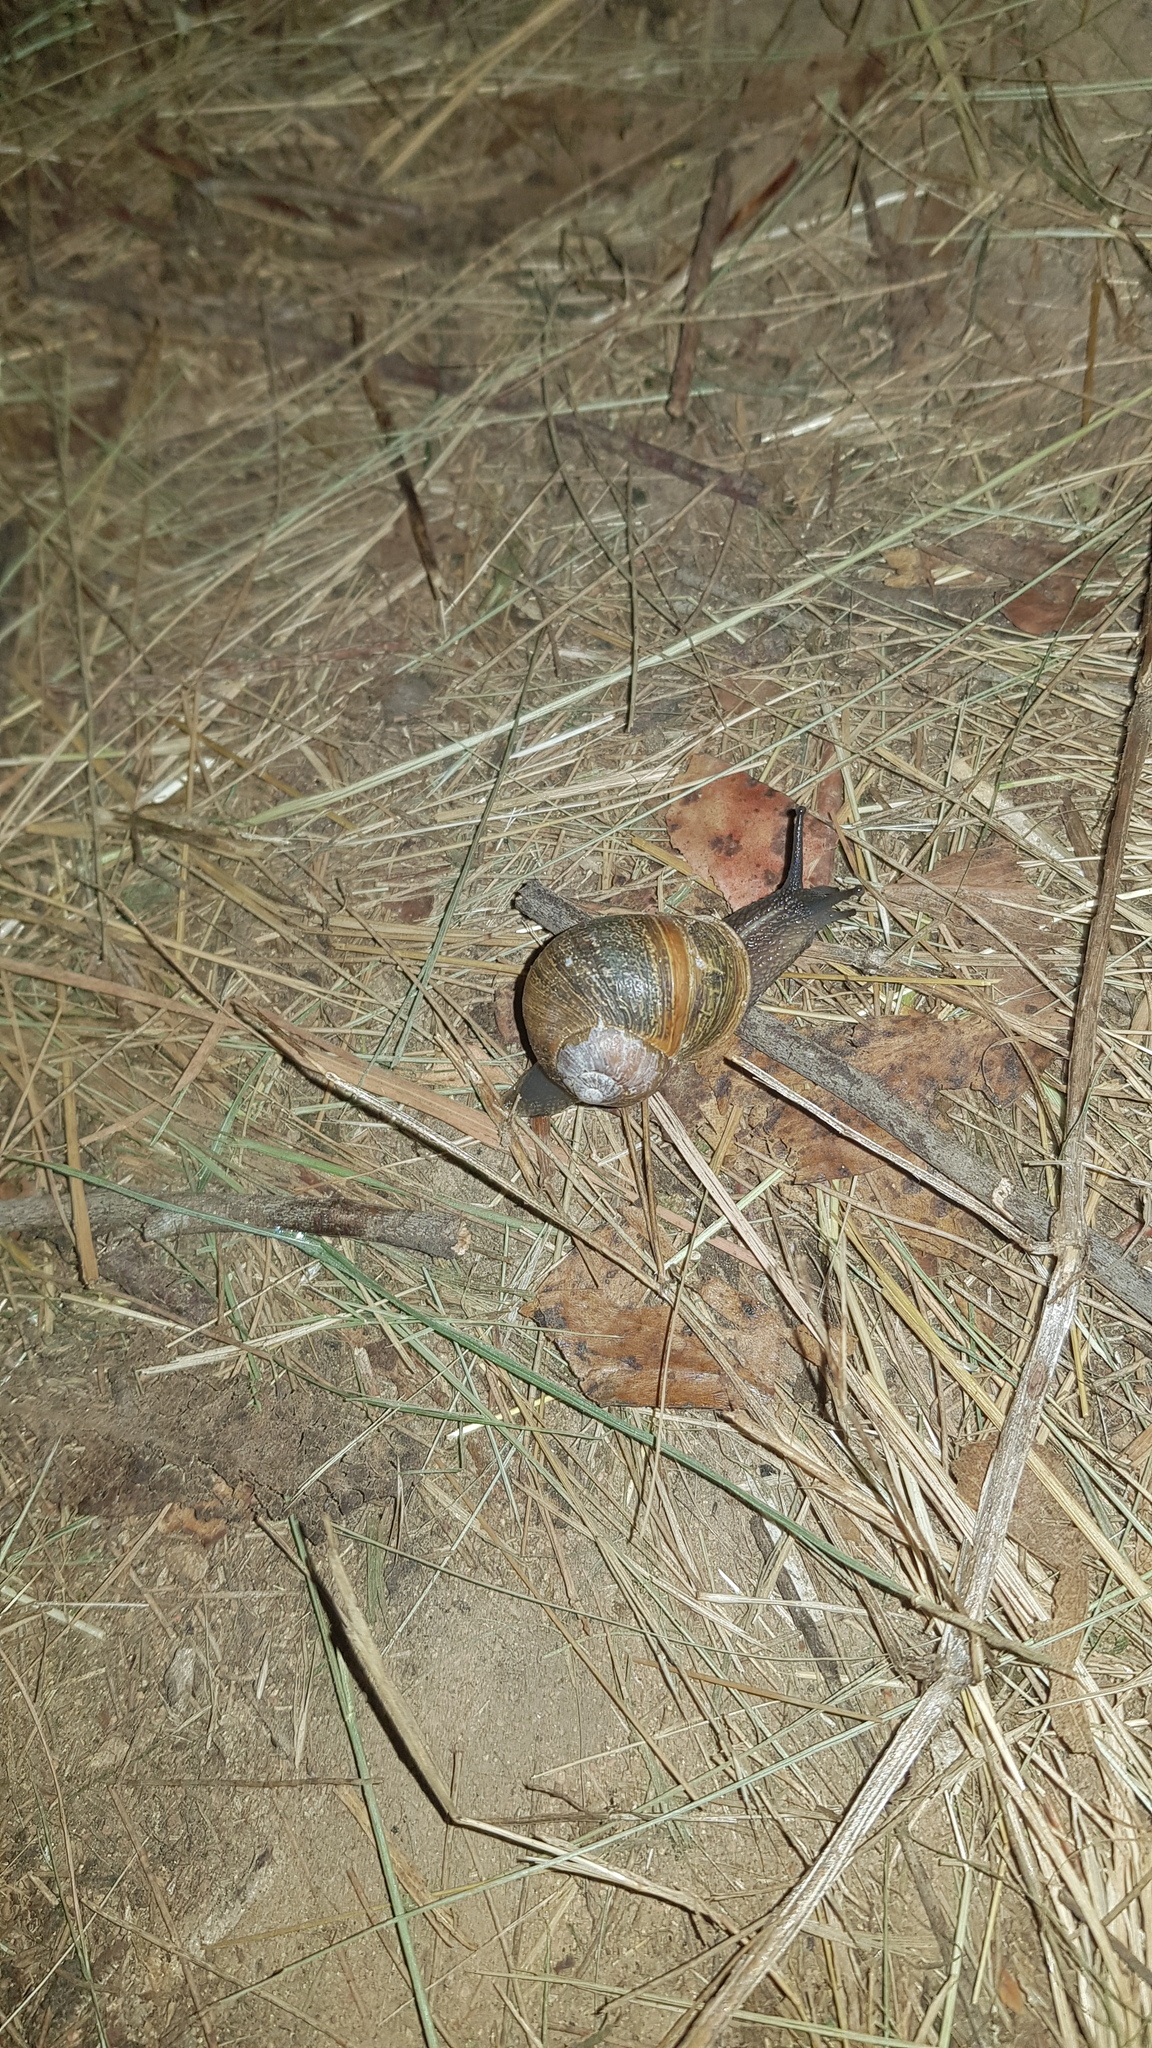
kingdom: Animalia
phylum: Mollusca
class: Gastropoda
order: Stylommatophora
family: Helicidae
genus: Cornu
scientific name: Cornu aspersum
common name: Brown garden snail
